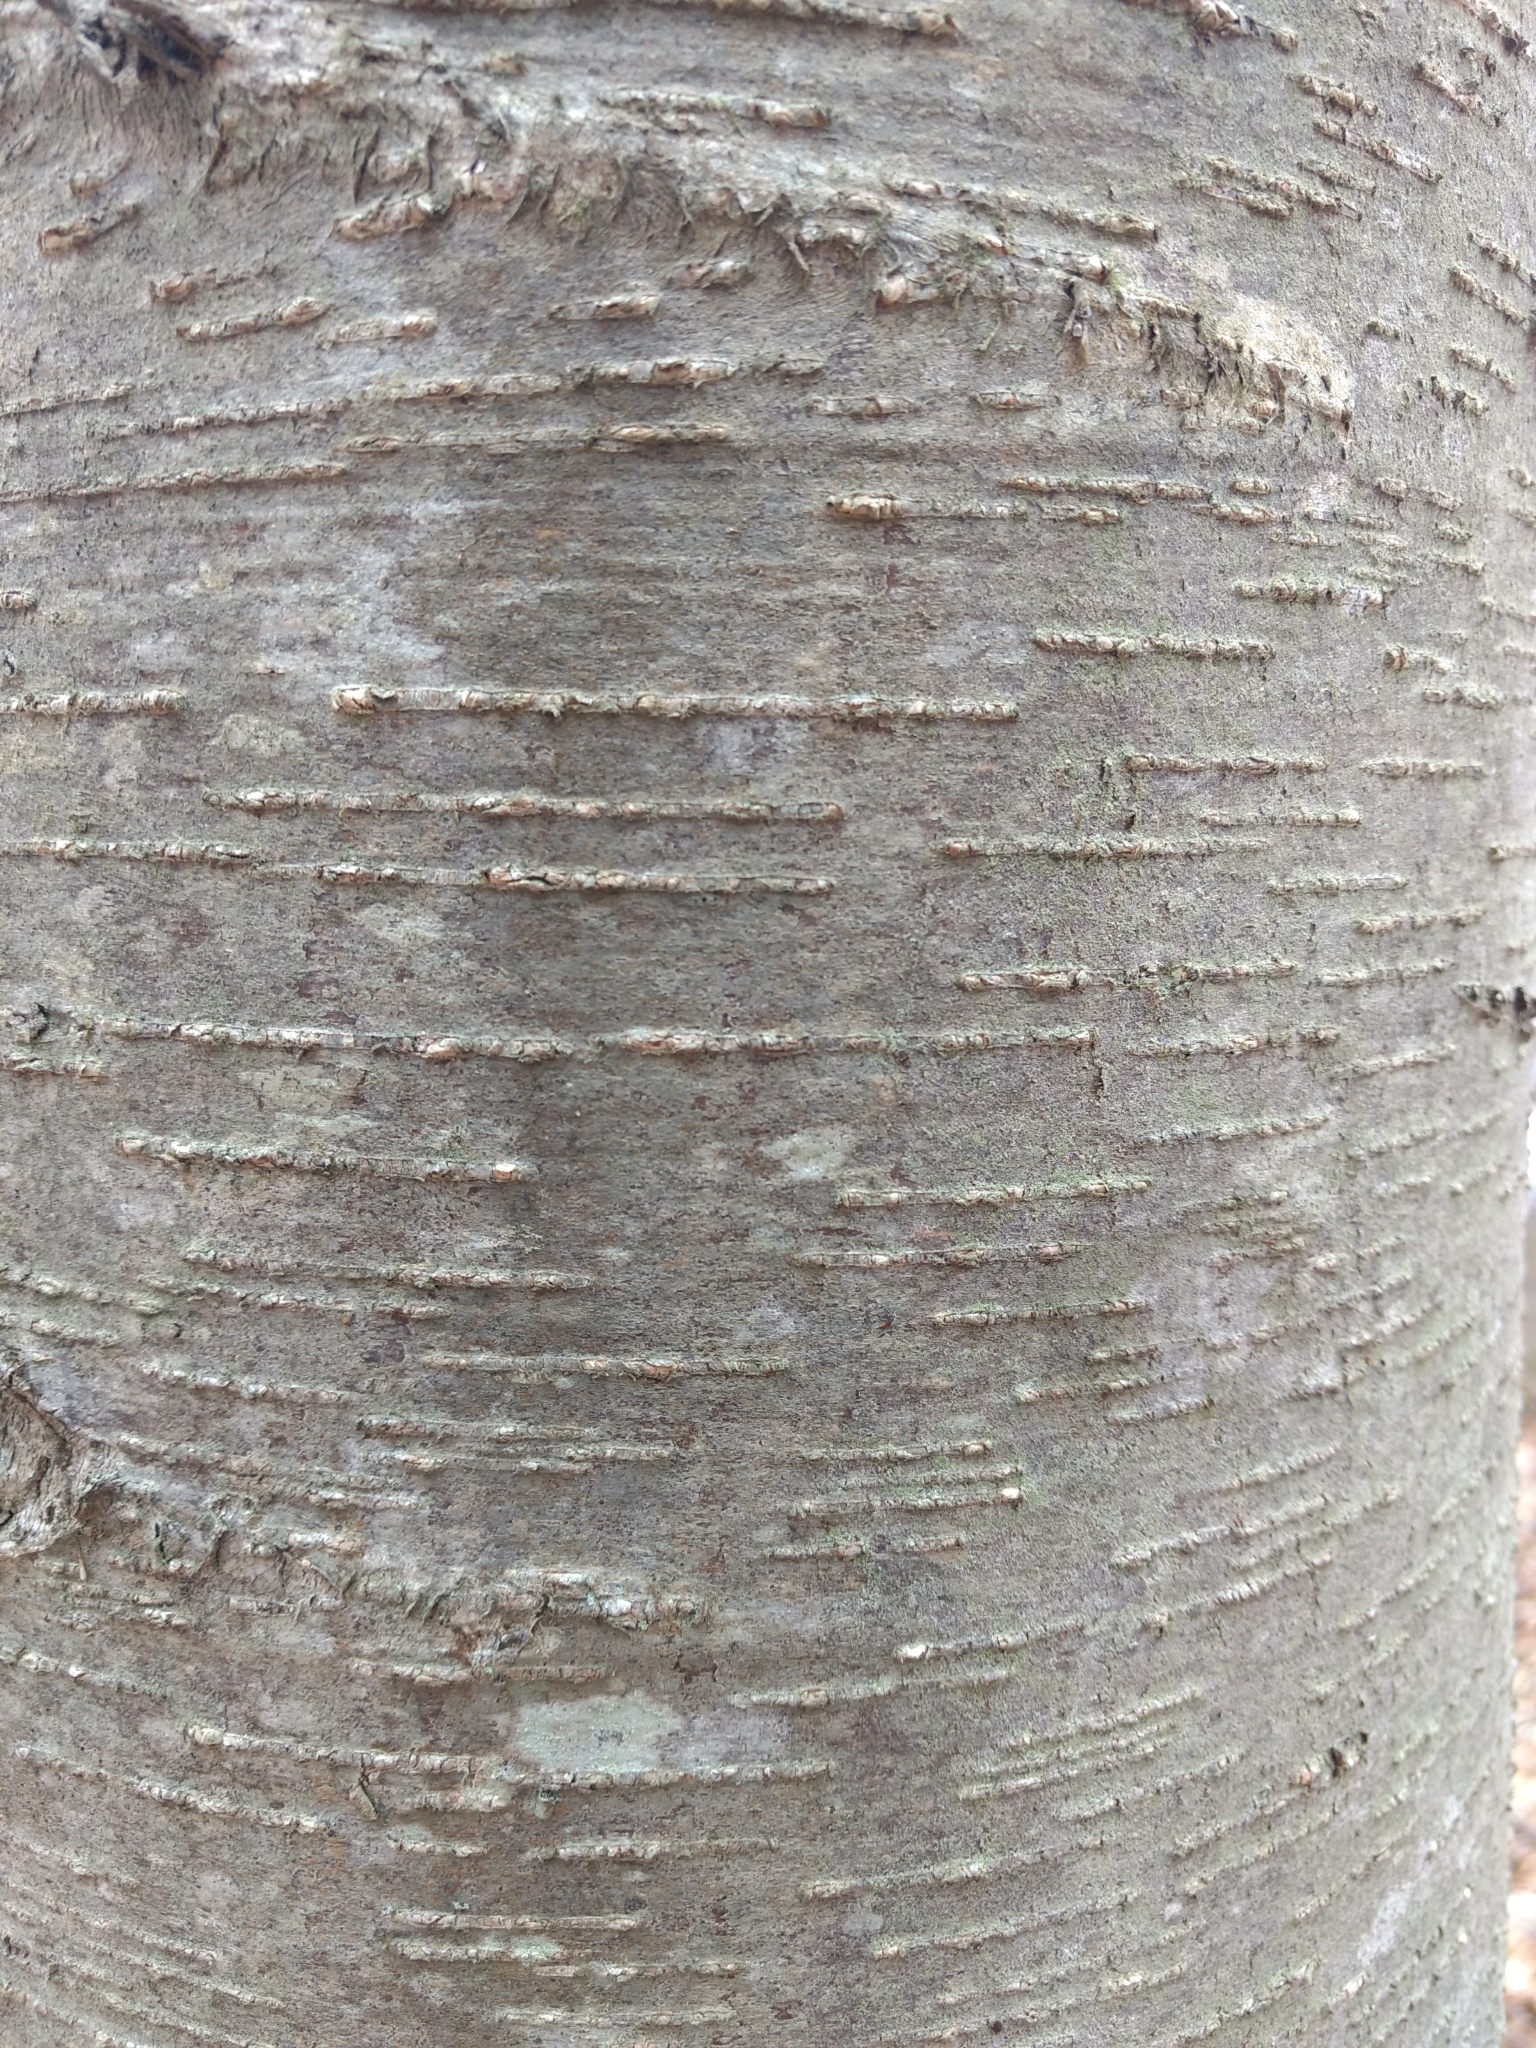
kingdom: Plantae
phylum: Tracheophyta
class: Magnoliopsida
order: Fagales
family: Betulaceae
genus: Betula
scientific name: Betula lenta
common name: Black birch
